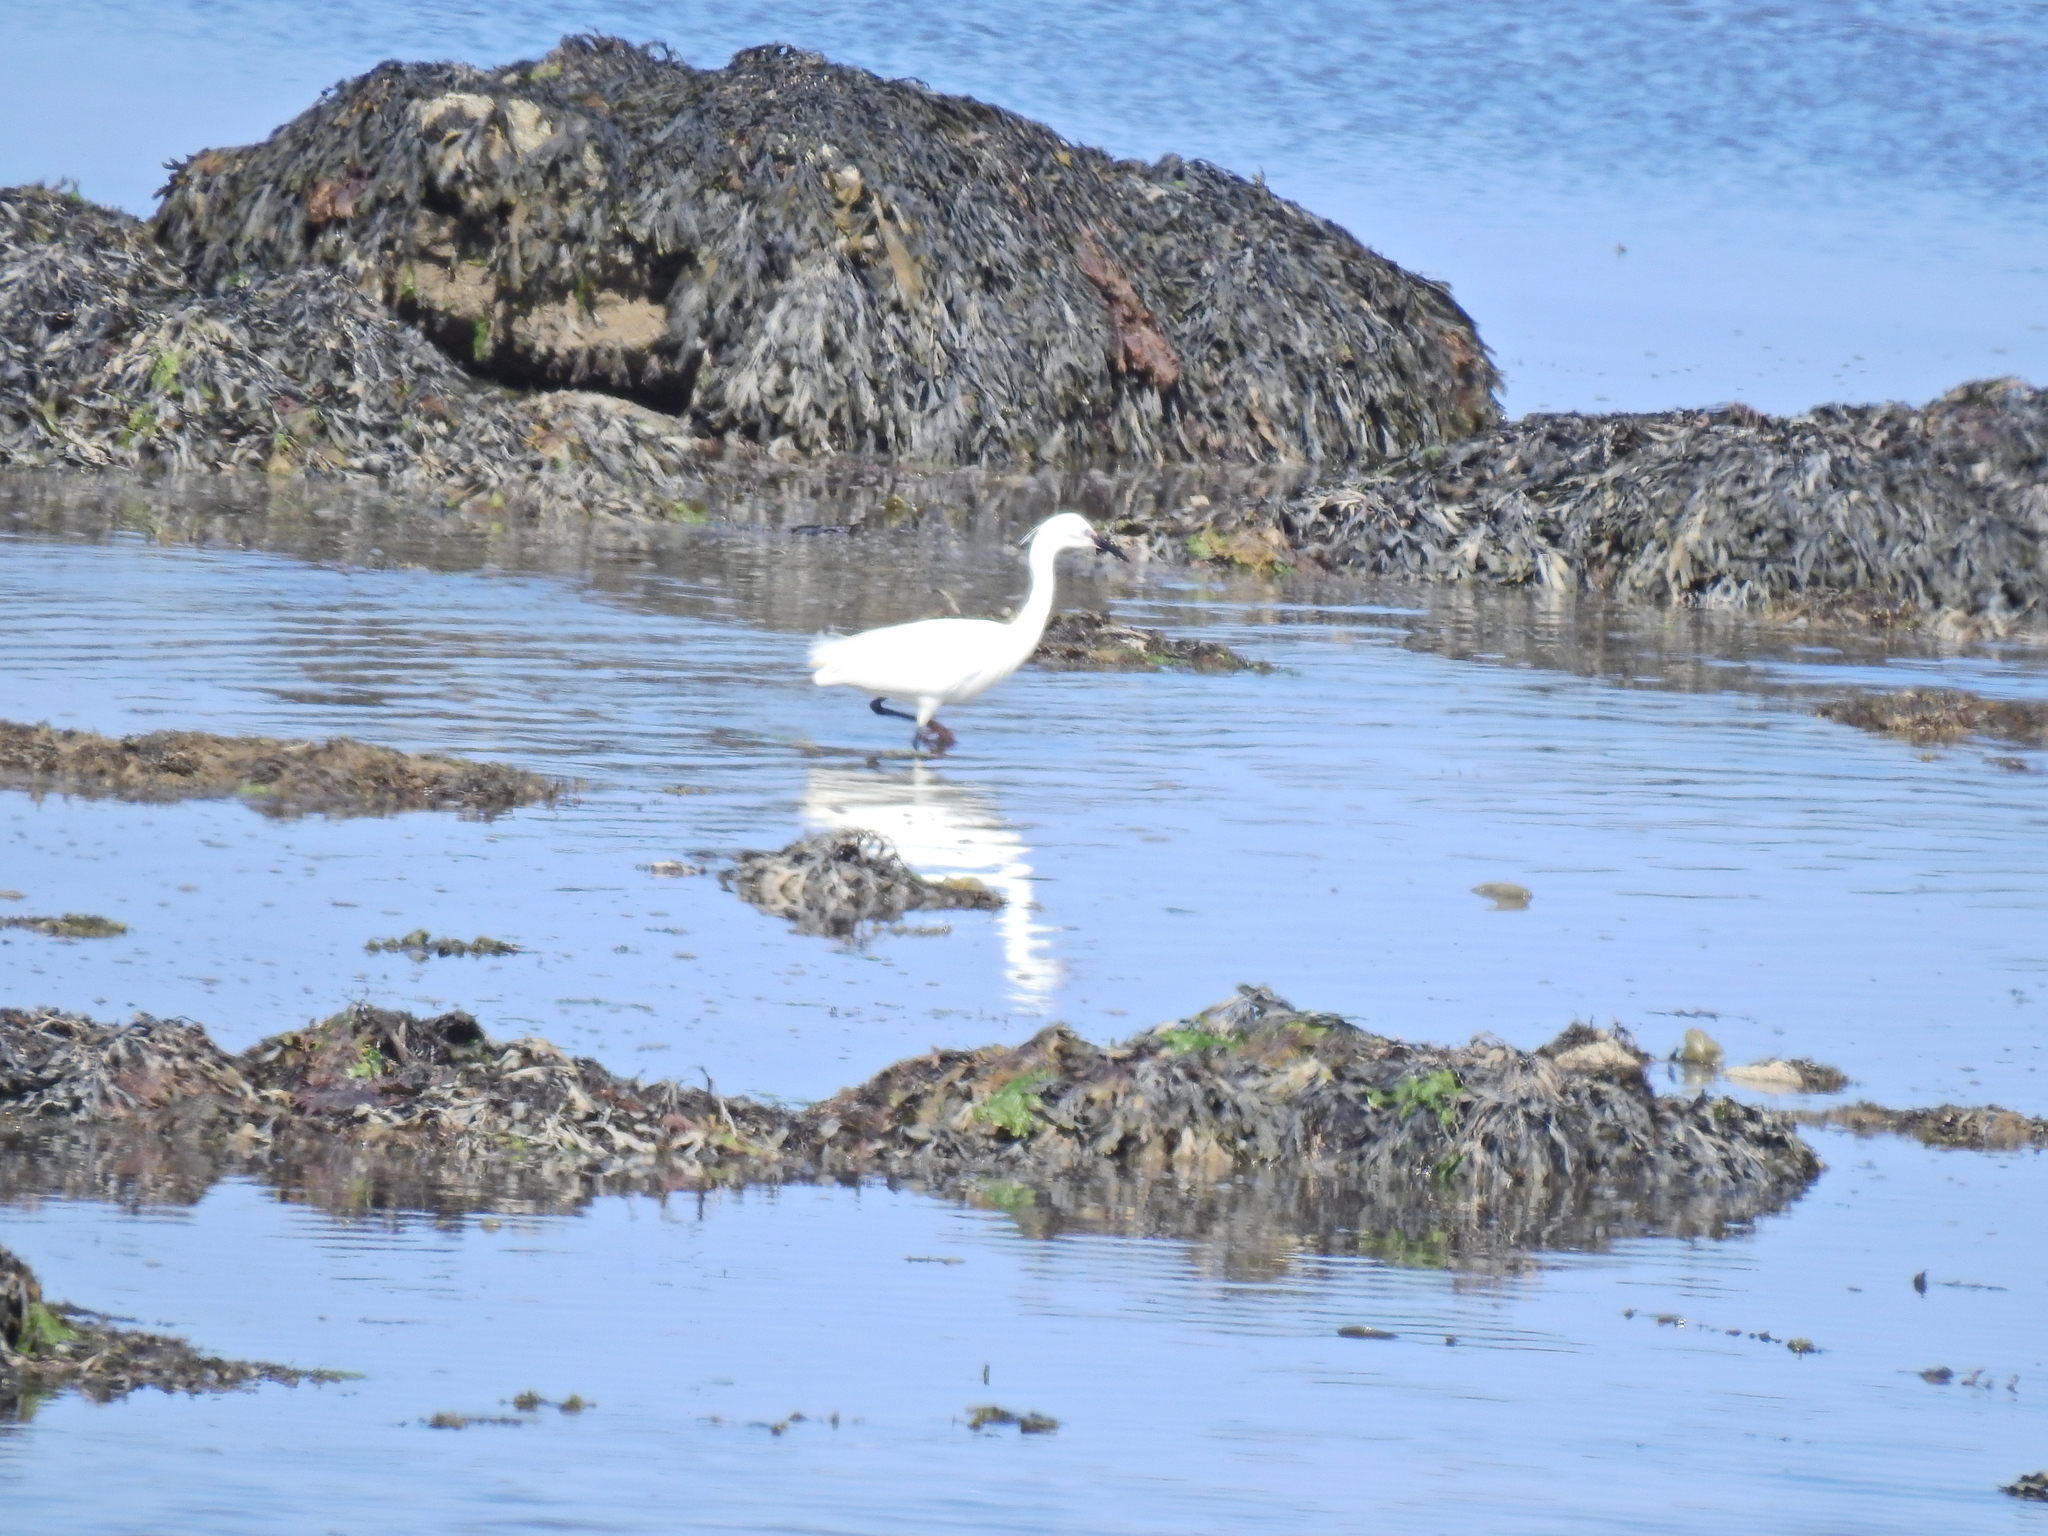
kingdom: Animalia
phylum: Chordata
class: Aves
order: Pelecaniformes
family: Ardeidae
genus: Egretta
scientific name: Egretta garzetta
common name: Little egret
